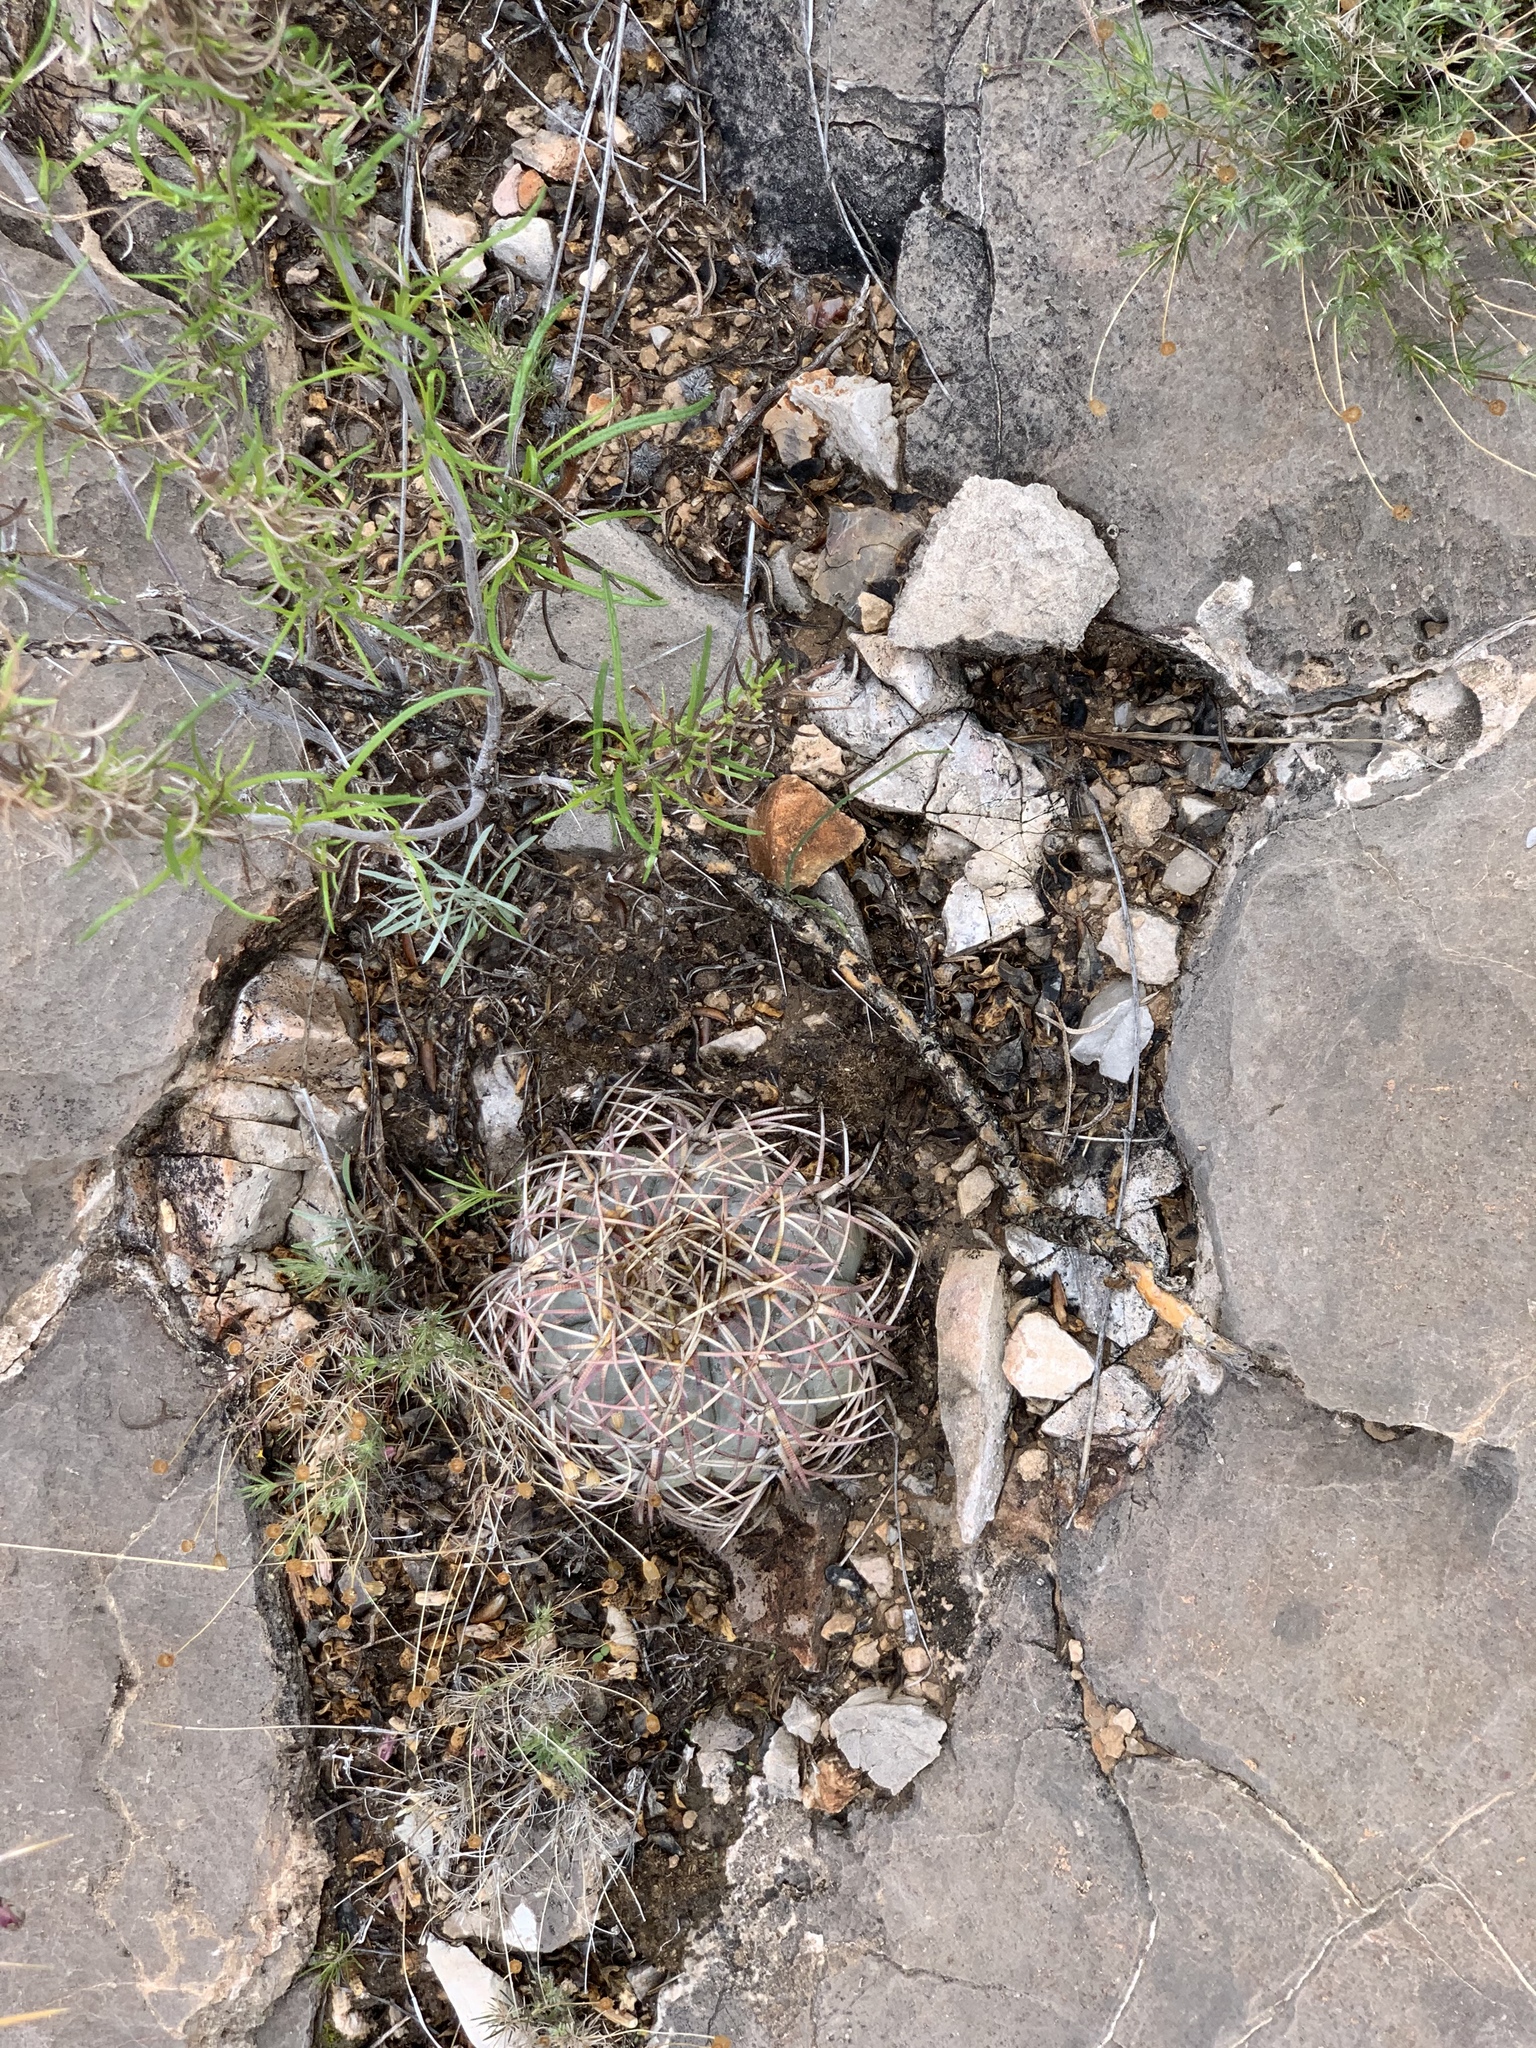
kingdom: Plantae
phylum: Tracheophyta
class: Magnoliopsida
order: Caryophyllales
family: Cactaceae
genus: Echinocactus
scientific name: Echinocactus horizonthalonius
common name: Devilshead
